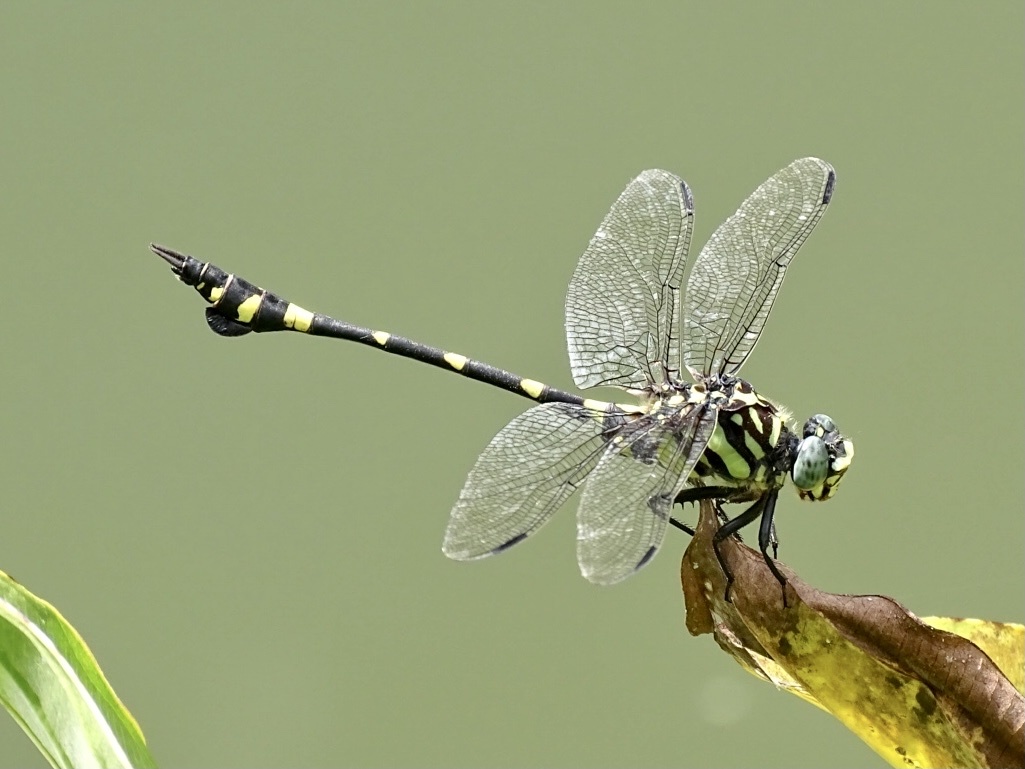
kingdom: Animalia
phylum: Arthropoda
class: Insecta
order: Odonata
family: Gomphidae
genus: Ictinogomphus
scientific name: Ictinogomphus pertinax
